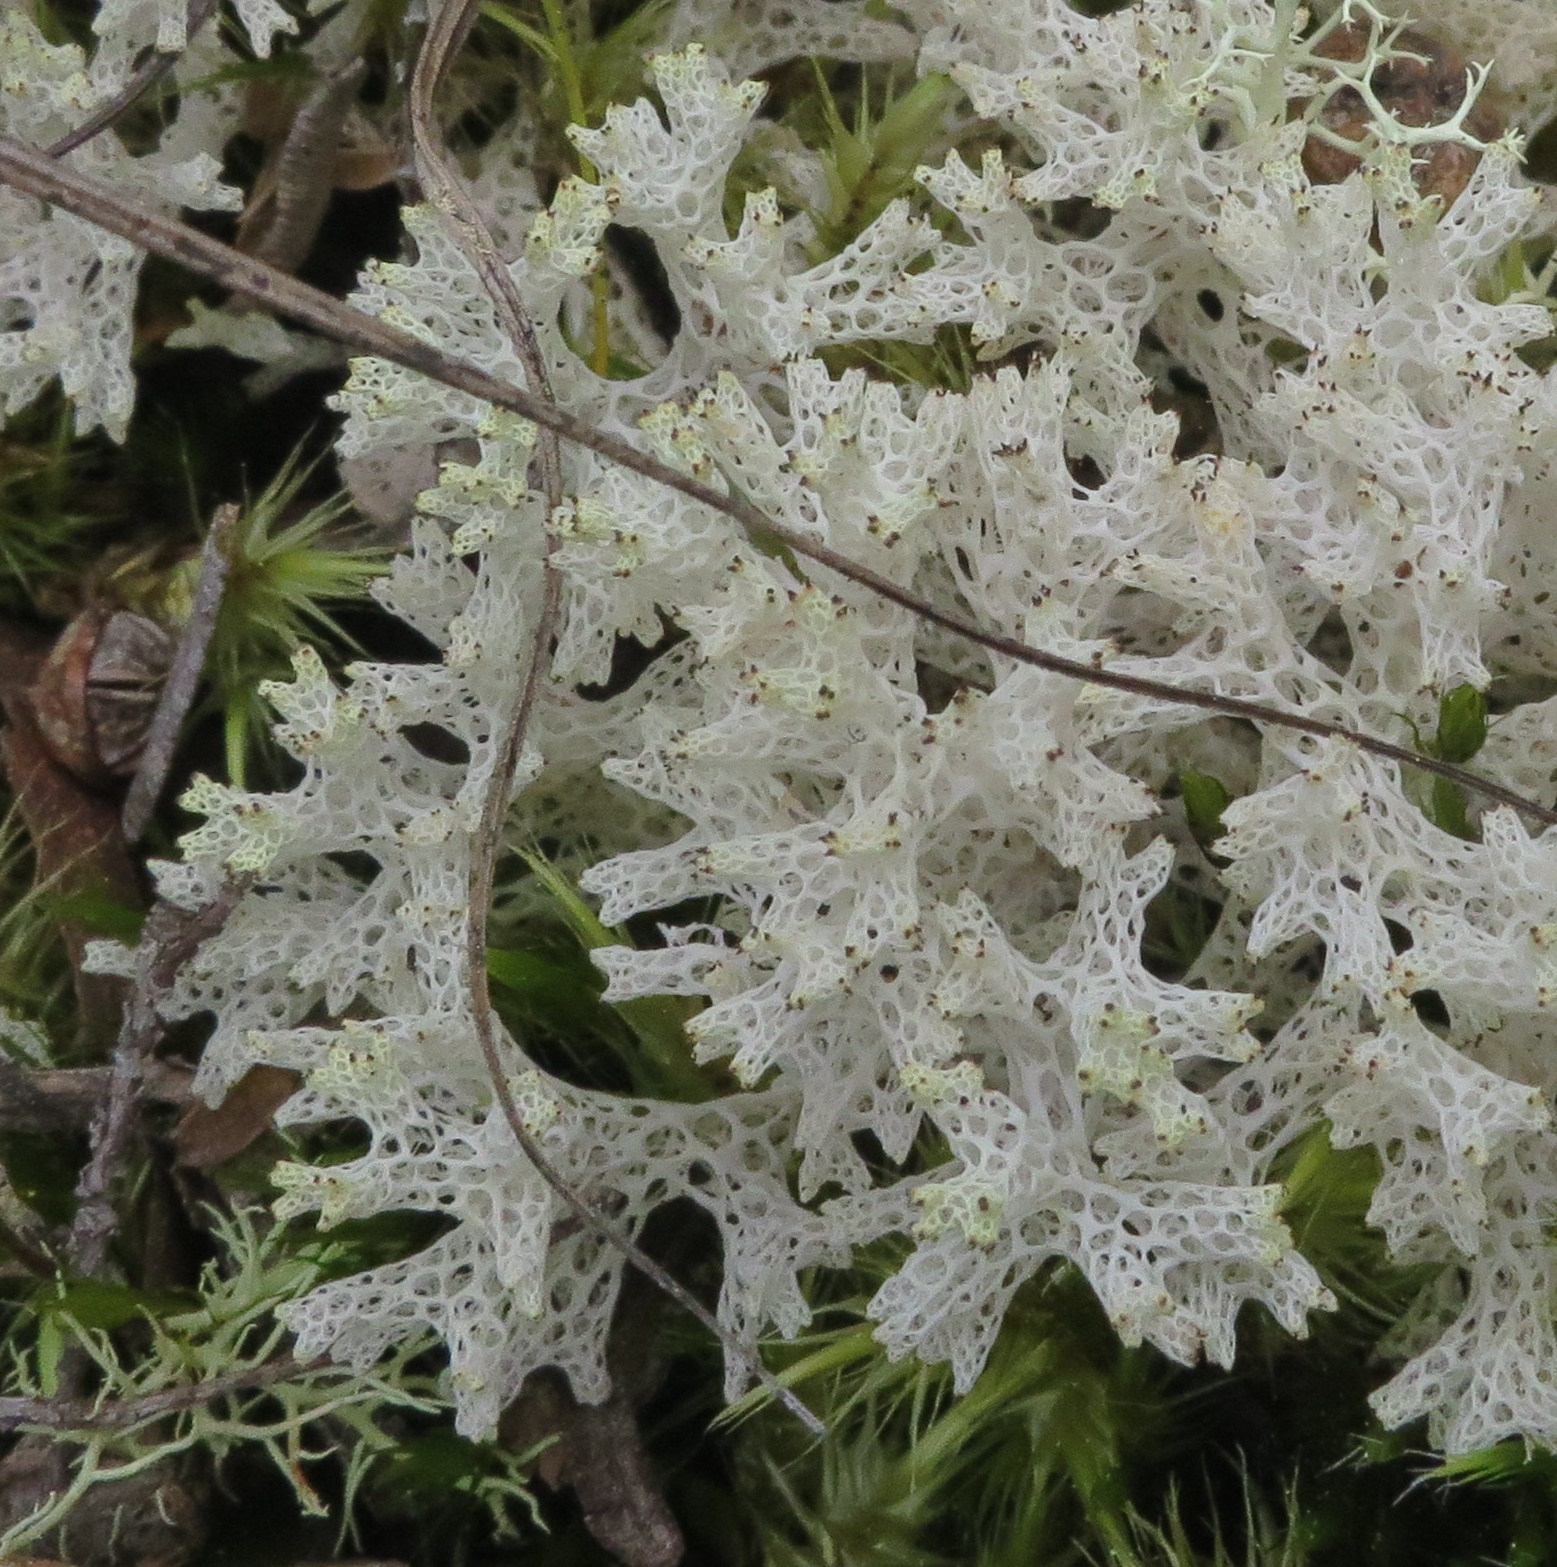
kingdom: Fungi
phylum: Ascomycota
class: Lecanoromycetes
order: Lecanorales
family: Cladoniaceae
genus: Pulchrocladia
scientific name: Pulchrocladia retipora
